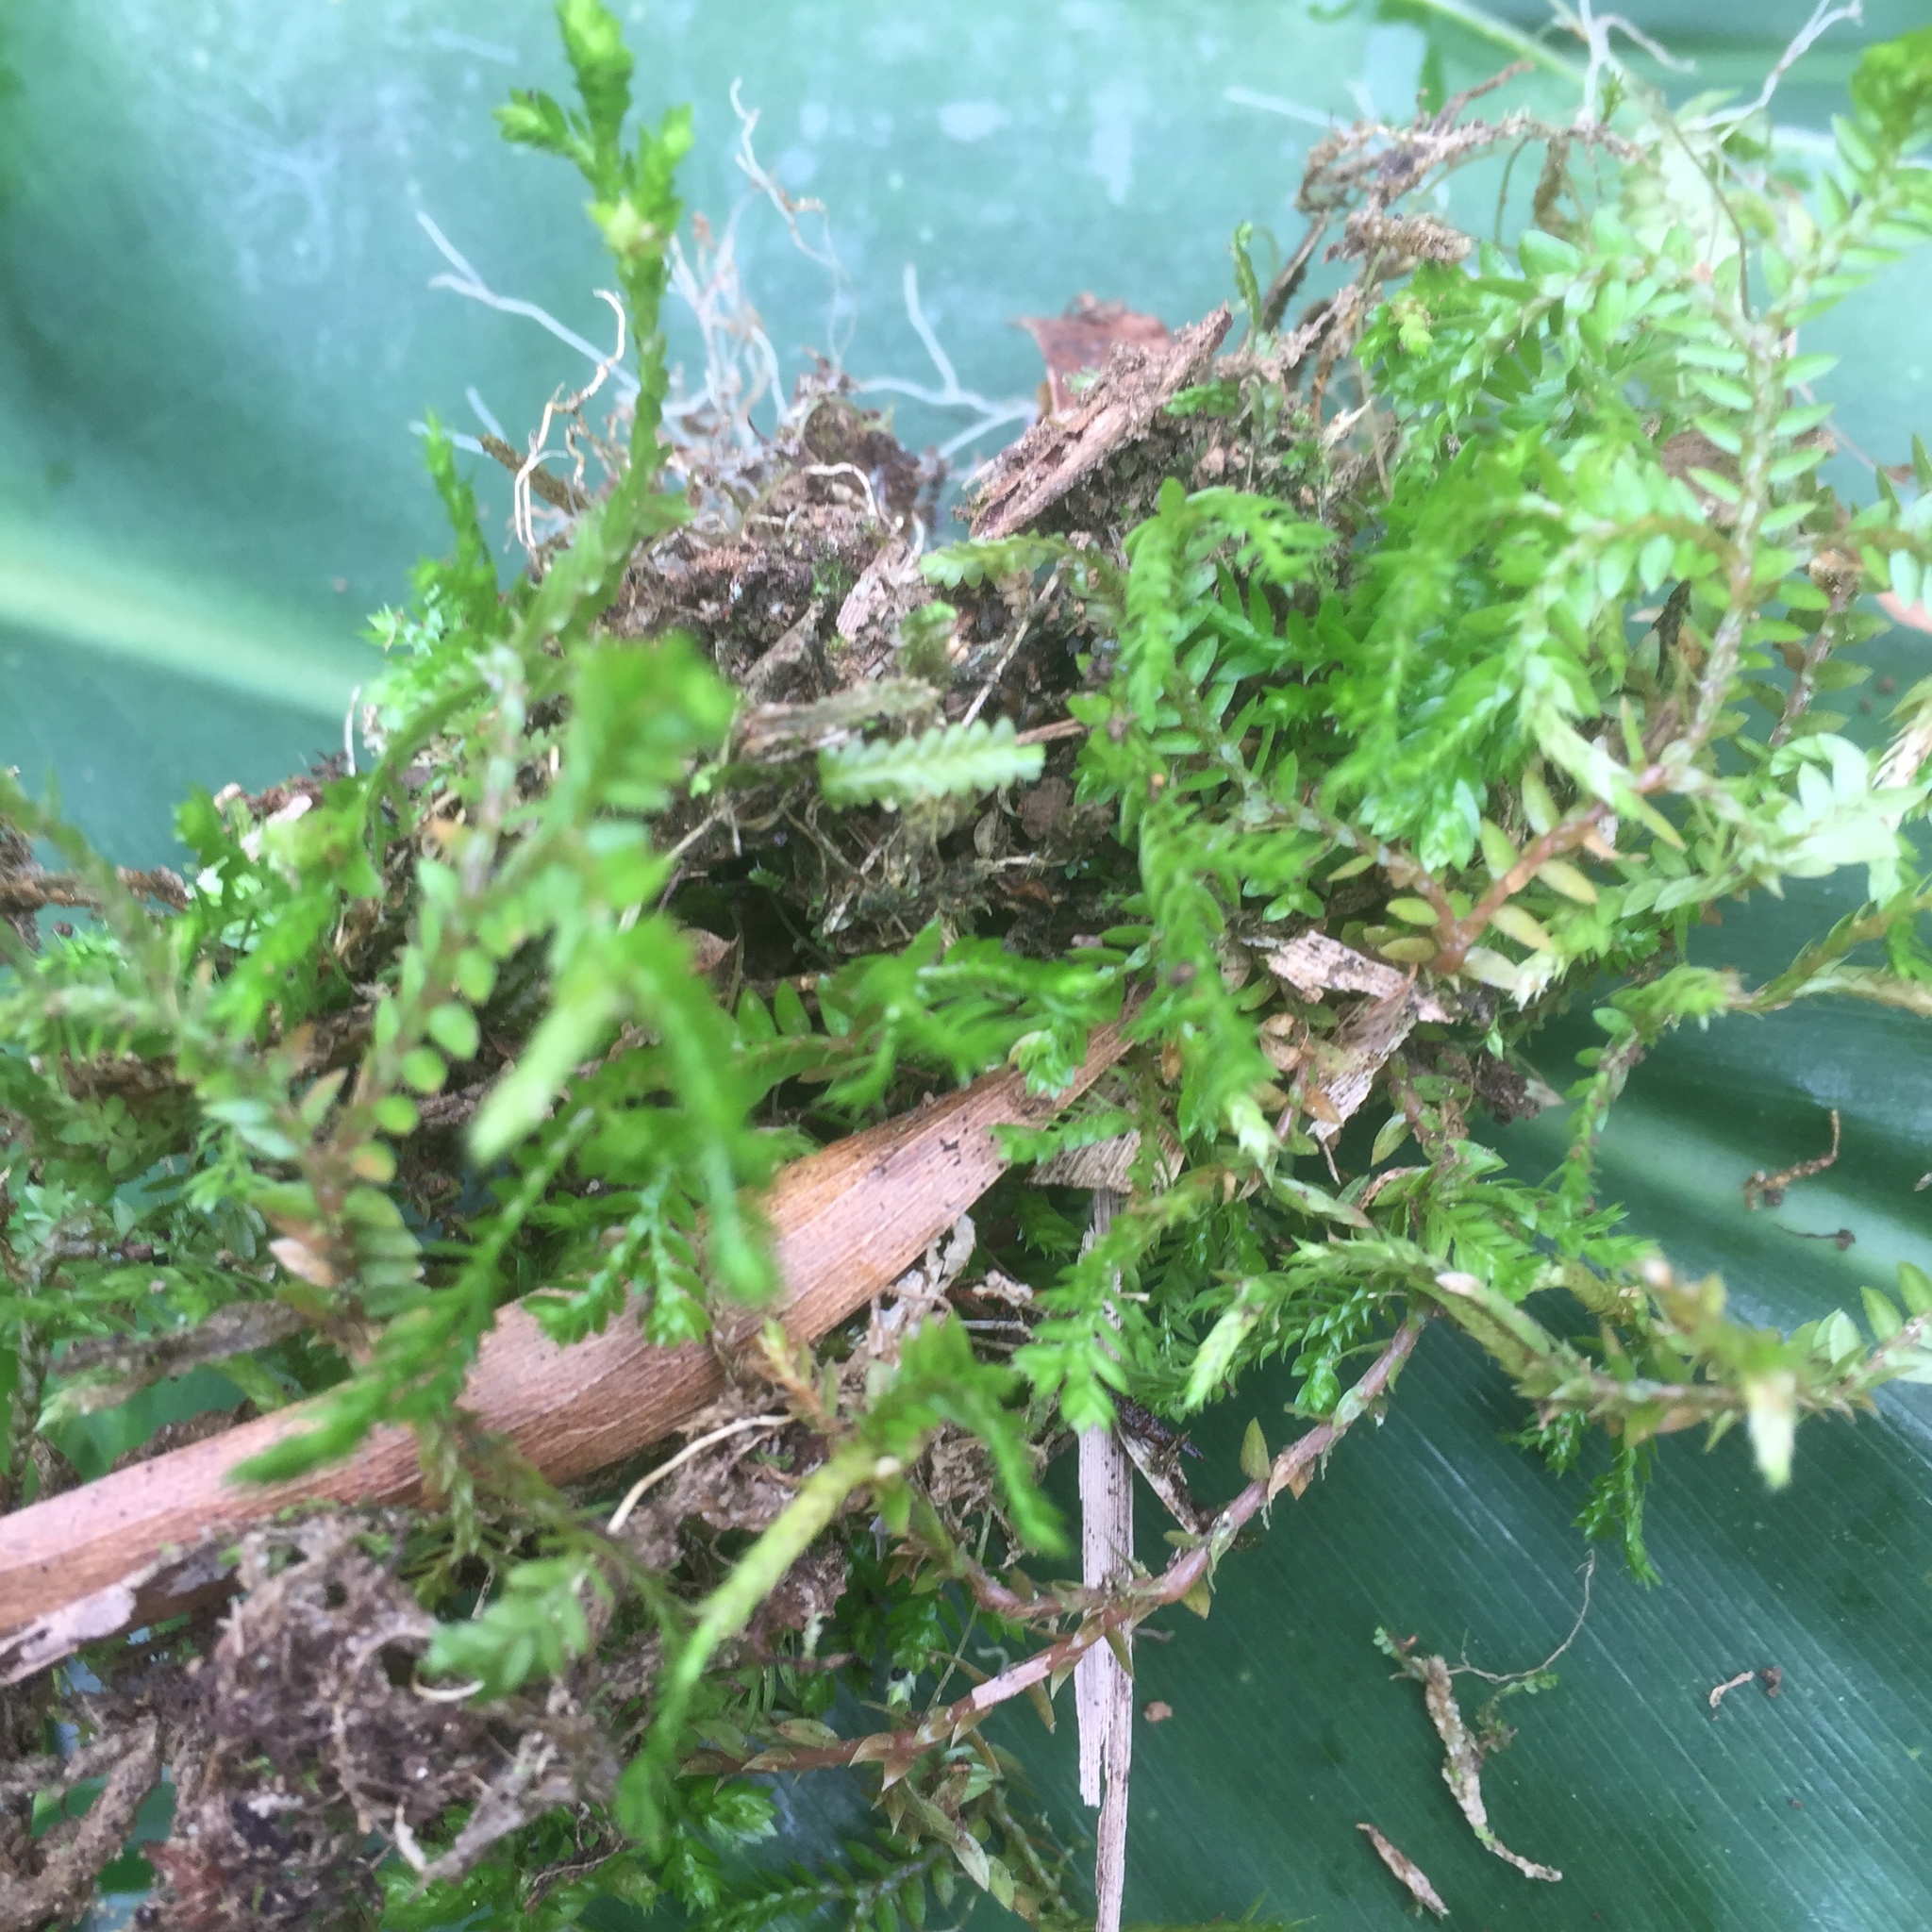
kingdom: Plantae
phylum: Tracheophyta
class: Lycopodiopsida
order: Selaginellales
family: Selaginellaceae
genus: Selaginella
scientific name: Selaginella kraussiana
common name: Krauss' spikemoss
